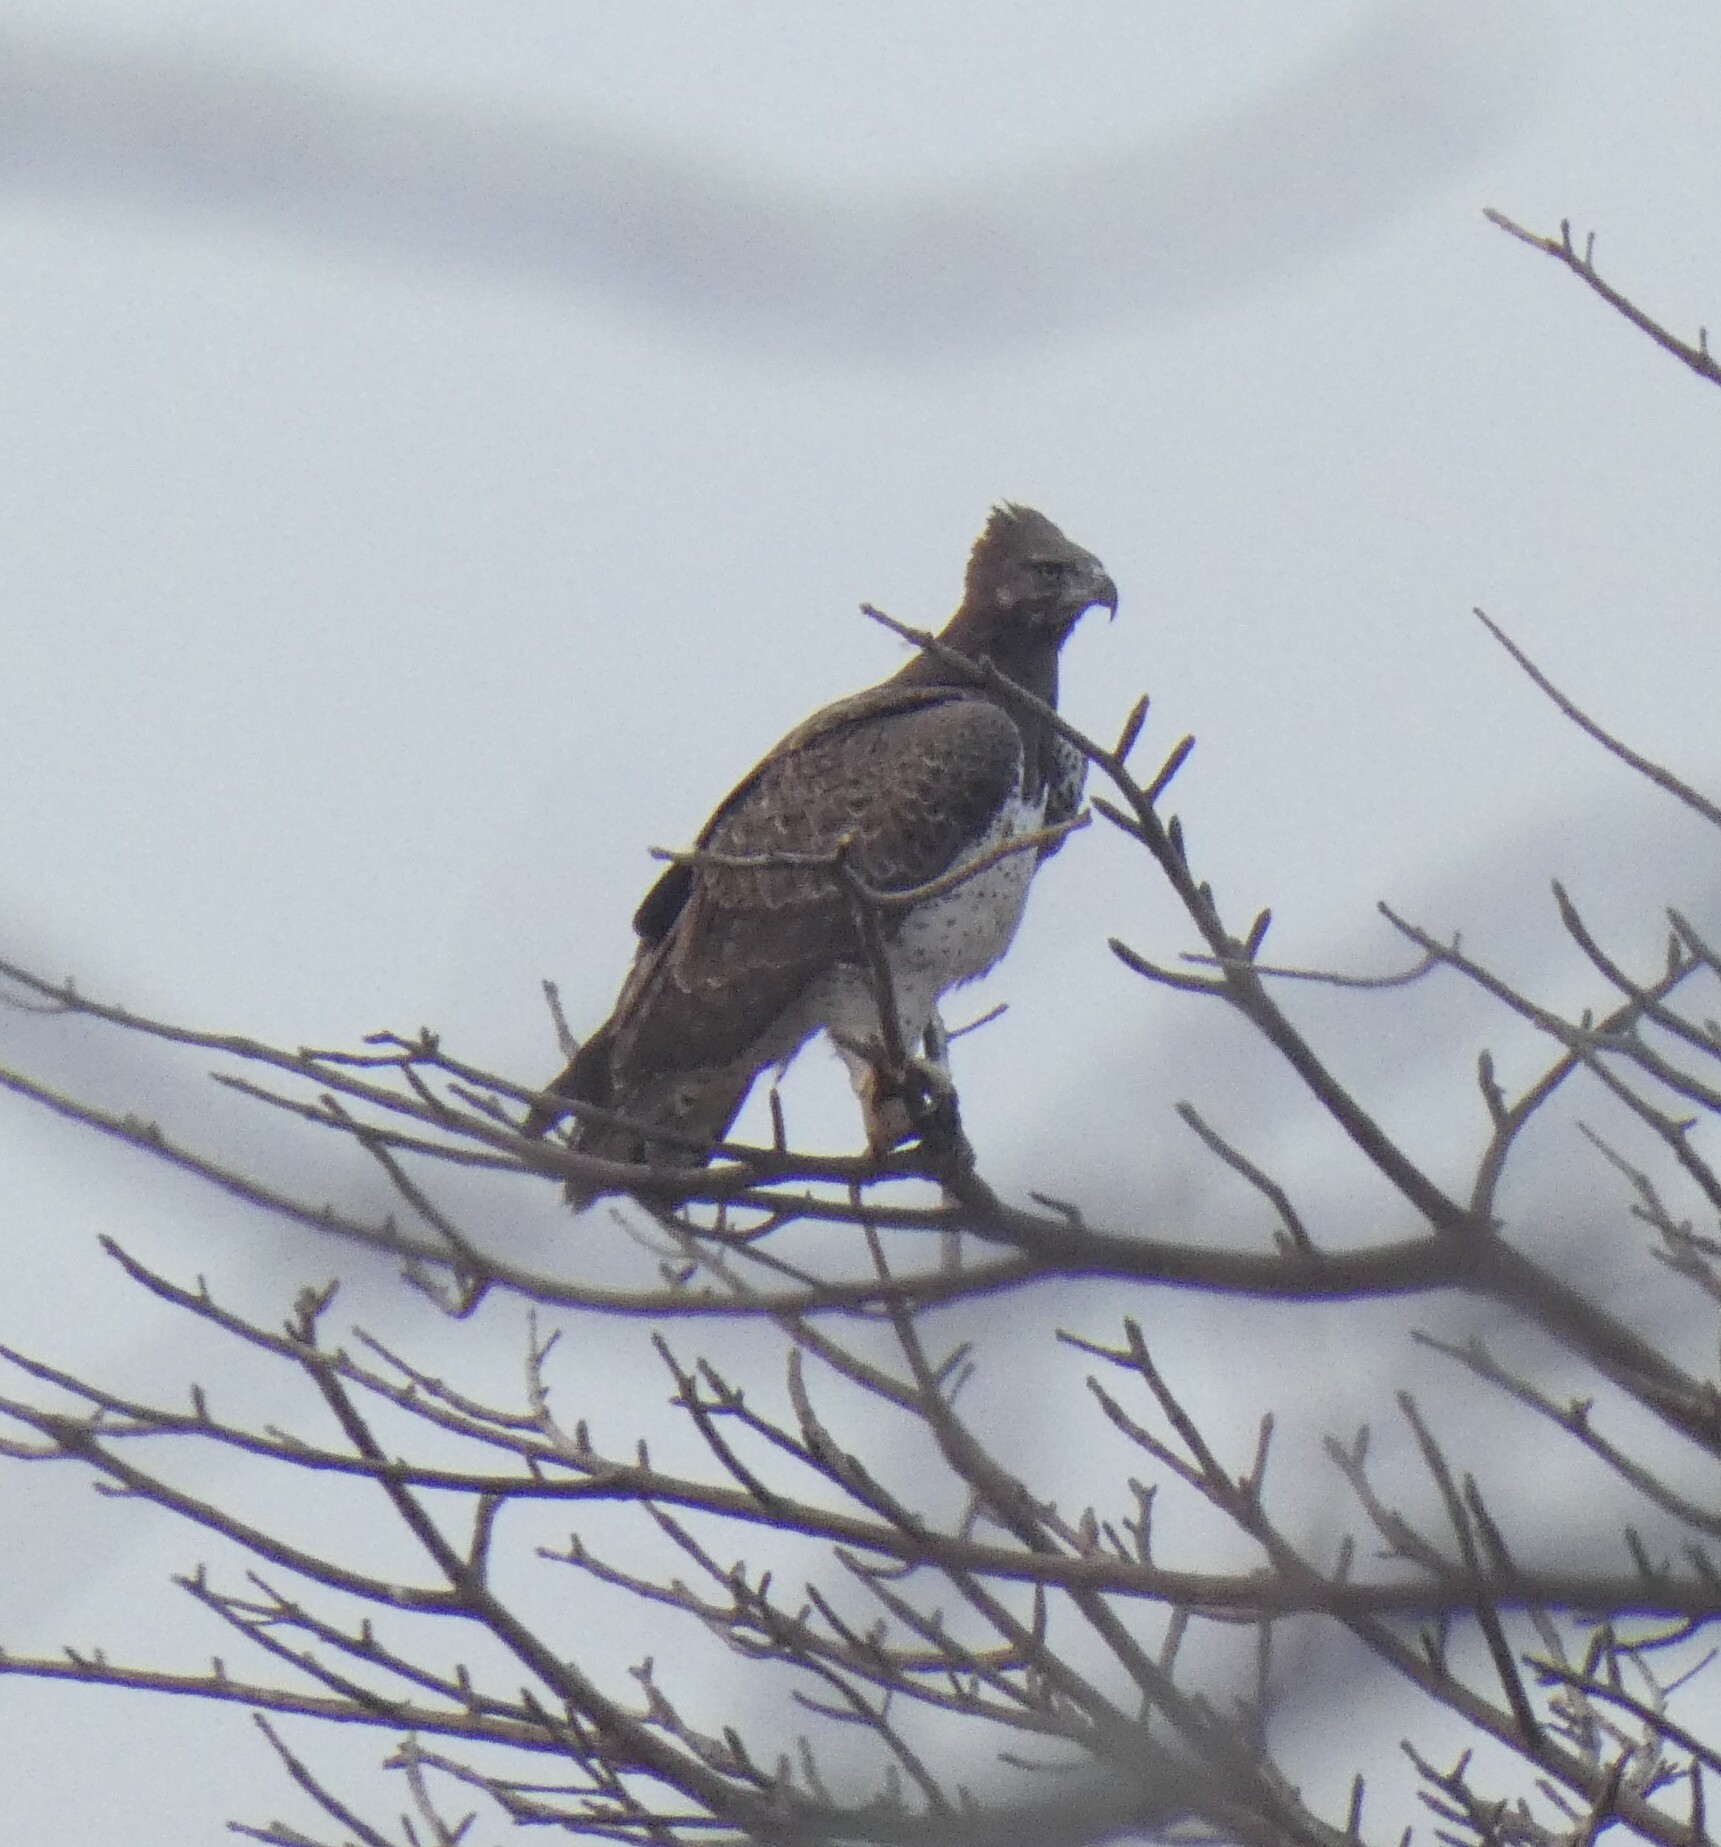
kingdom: Animalia
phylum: Chordata
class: Aves
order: Accipitriformes
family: Accipitridae
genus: Polemaetus
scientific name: Polemaetus bellicosus
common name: Martial eagle
